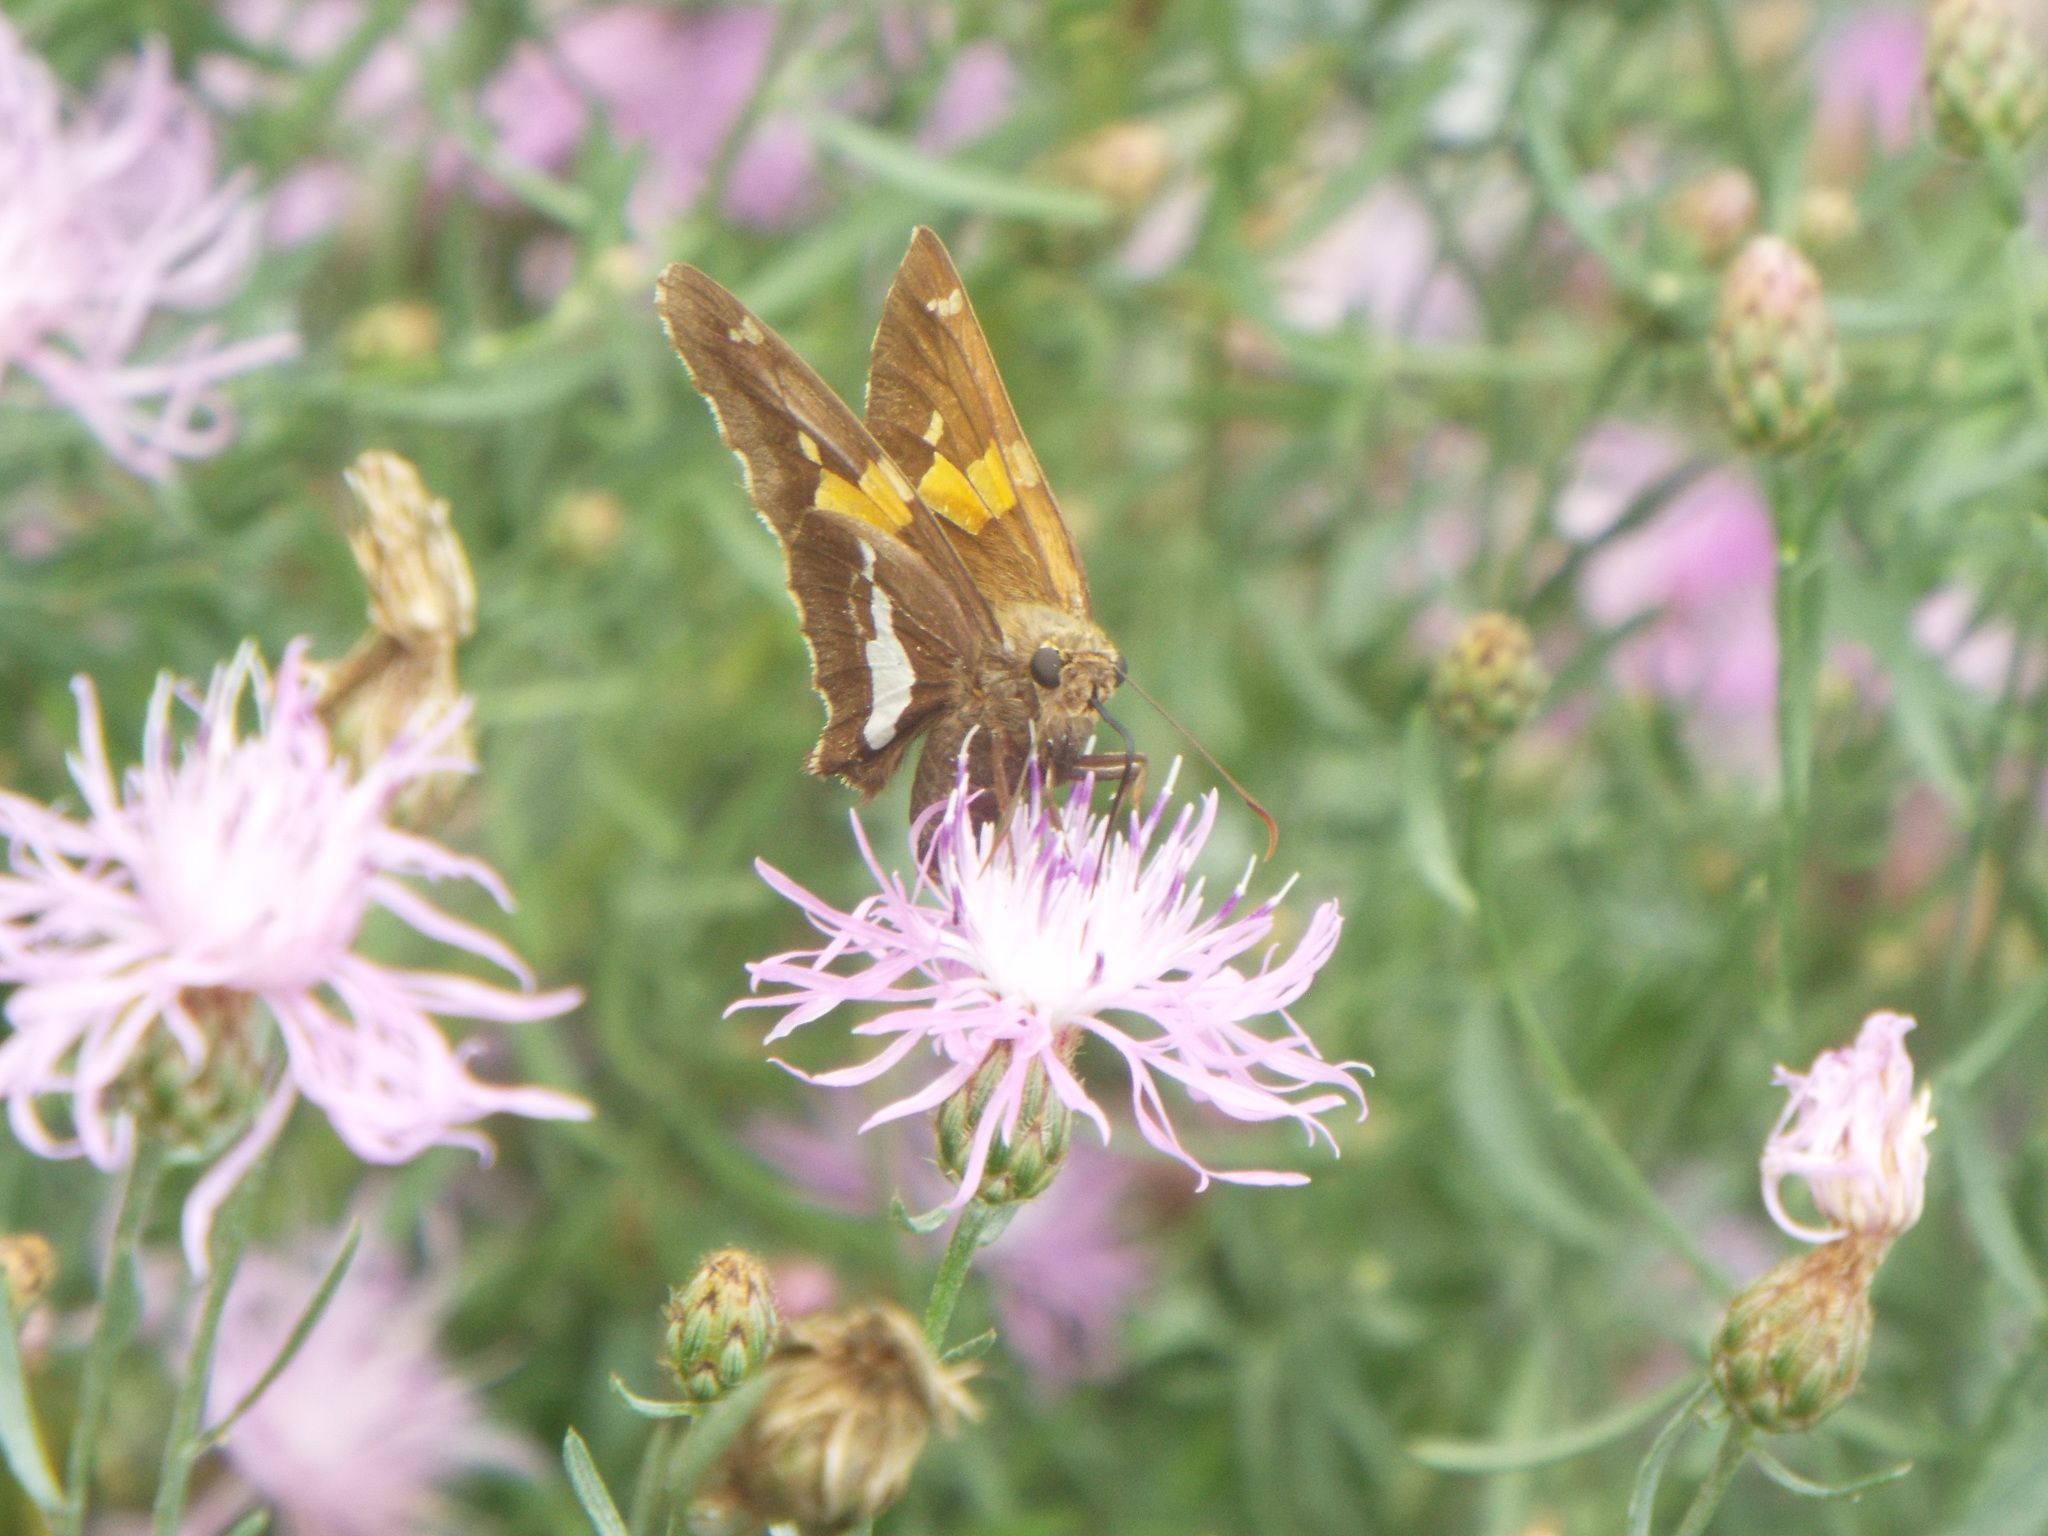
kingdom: Animalia
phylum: Arthropoda
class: Insecta
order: Lepidoptera
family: Hesperiidae
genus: Epargyreus
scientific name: Epargyreus clarus
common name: Silver-spotted skipper
